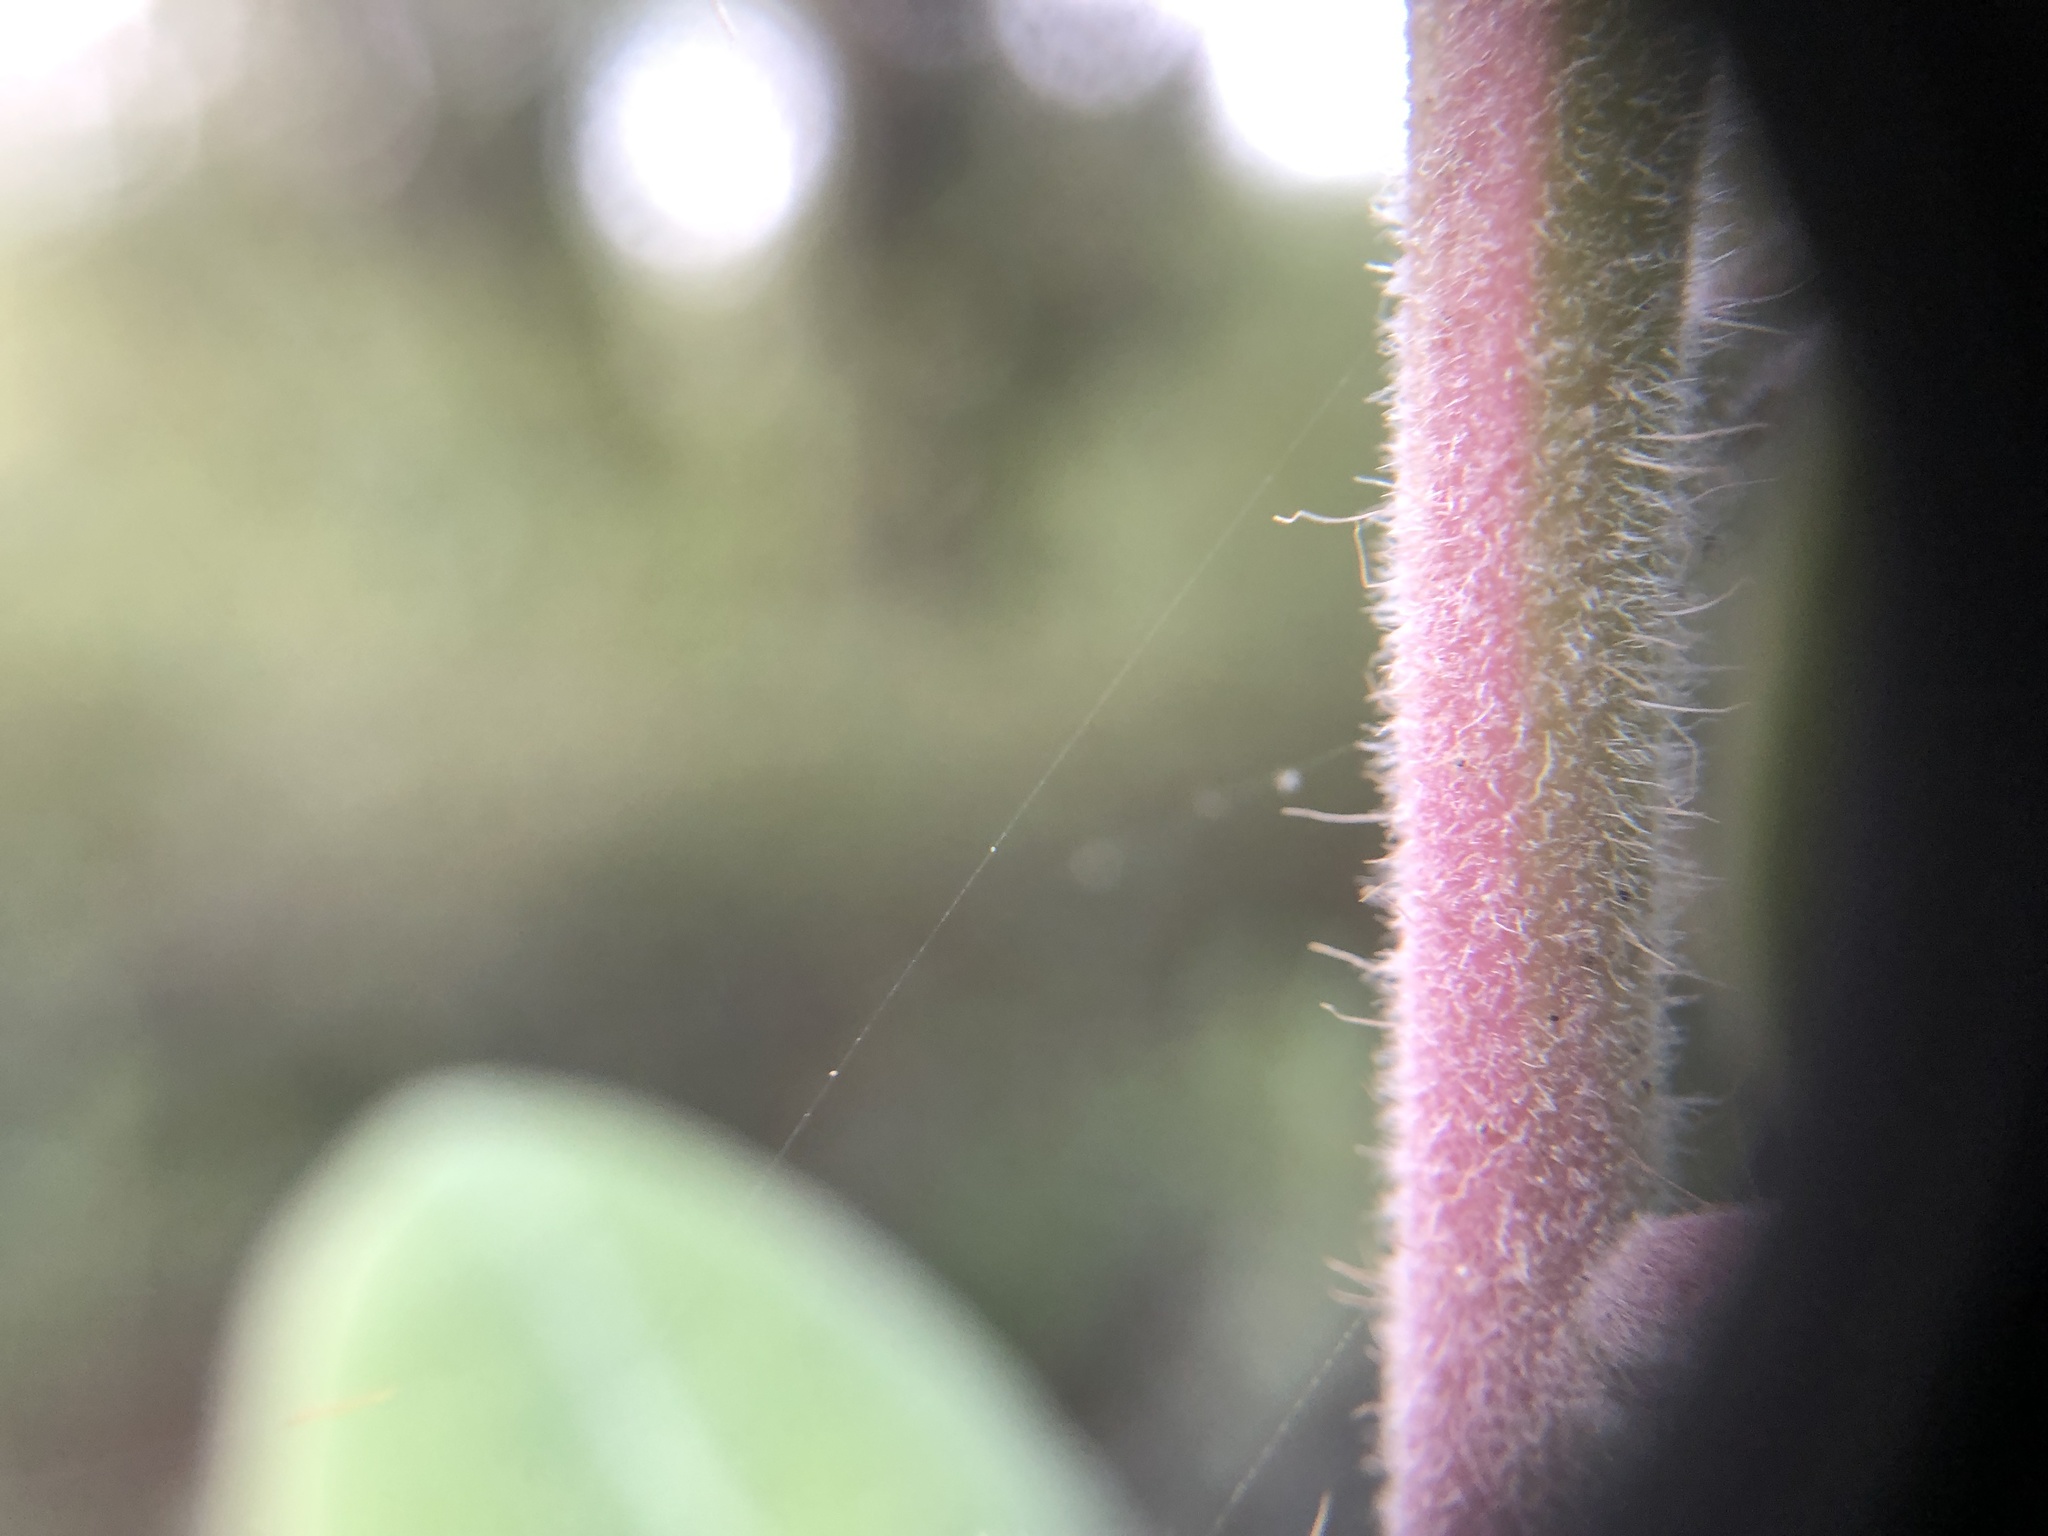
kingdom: Plantae
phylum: Tracheophyta
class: Magnoliopsida
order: Ericales
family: Ericaceae
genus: Arctostaphylos
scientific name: Arctostaphylos crustacea
